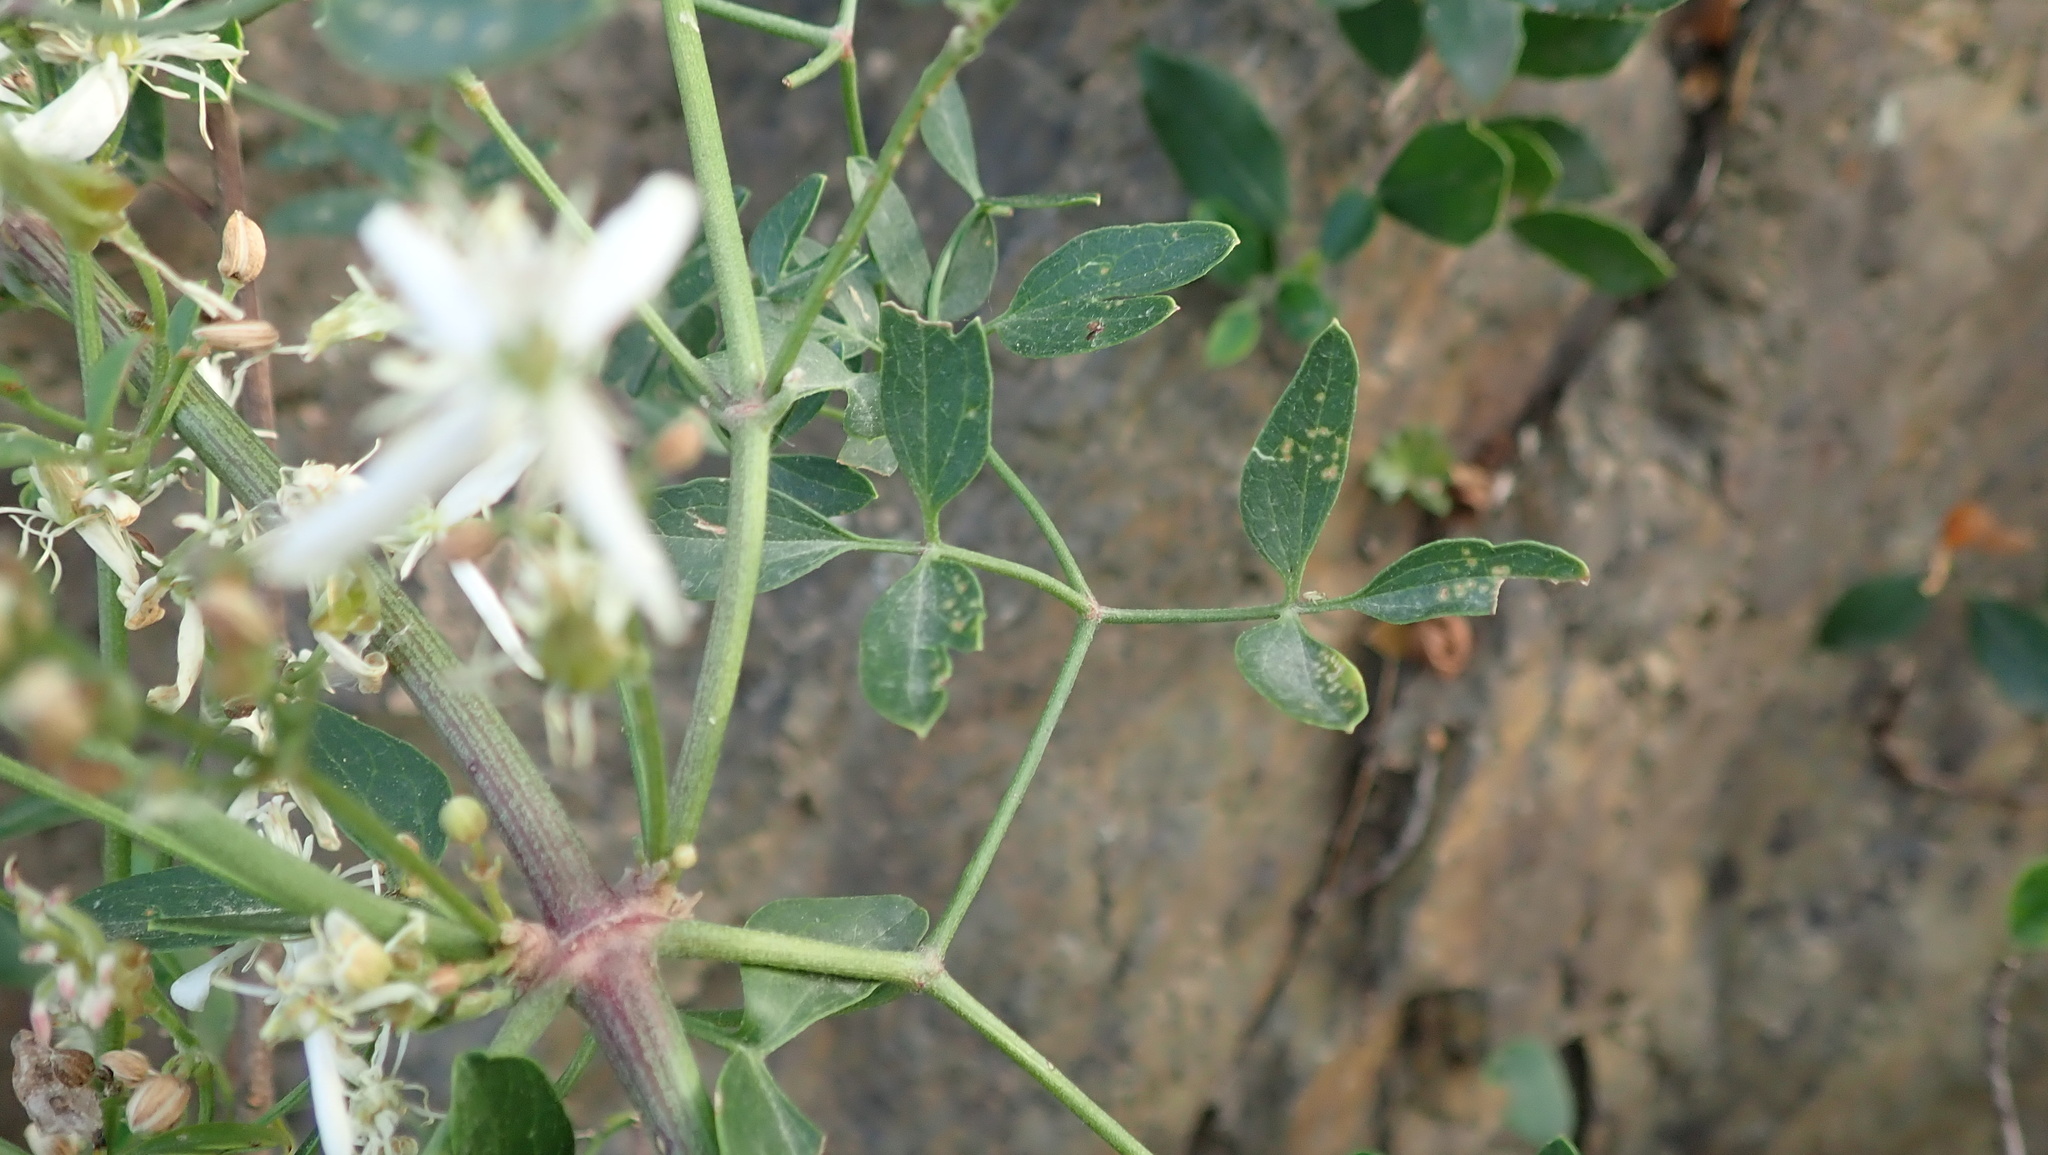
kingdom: Plantae
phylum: Tracheophyta
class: Magnoliopsida
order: Ranunculales
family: Ranunculaceae
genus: Clematis
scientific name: Clematis flammula
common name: Virgin's-bower
